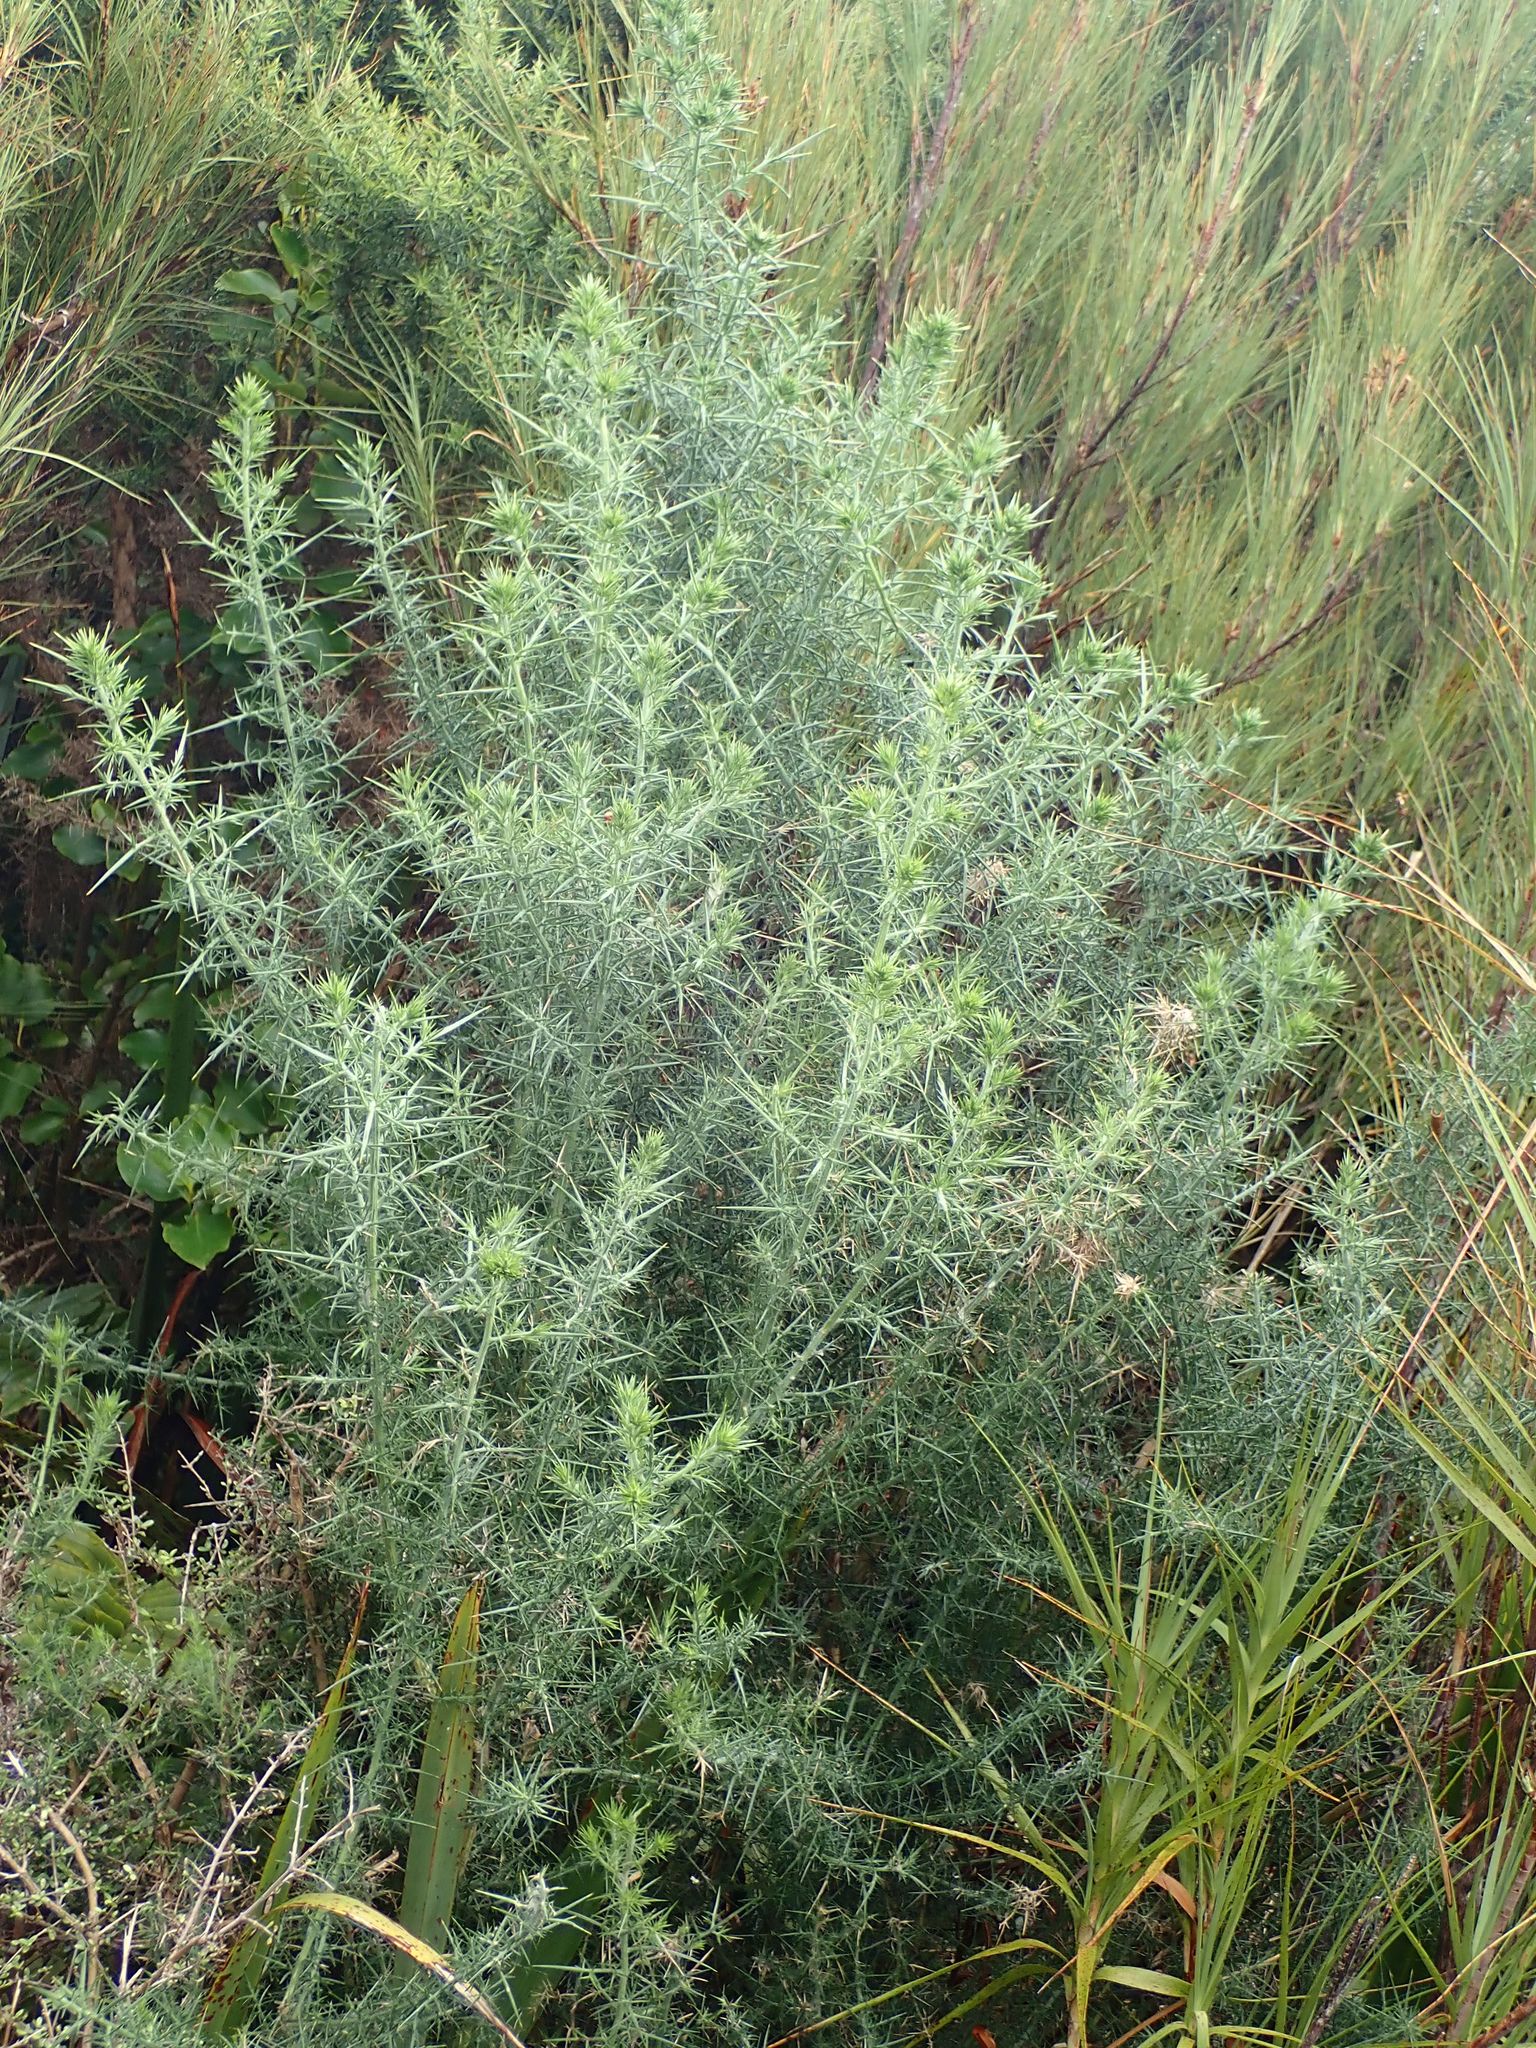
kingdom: Plantae
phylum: Tracheophyta
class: Magnoliopsida
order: Fabales
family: Fabaceae
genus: Ulex
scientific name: Ulex europaeus
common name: Common gorse
